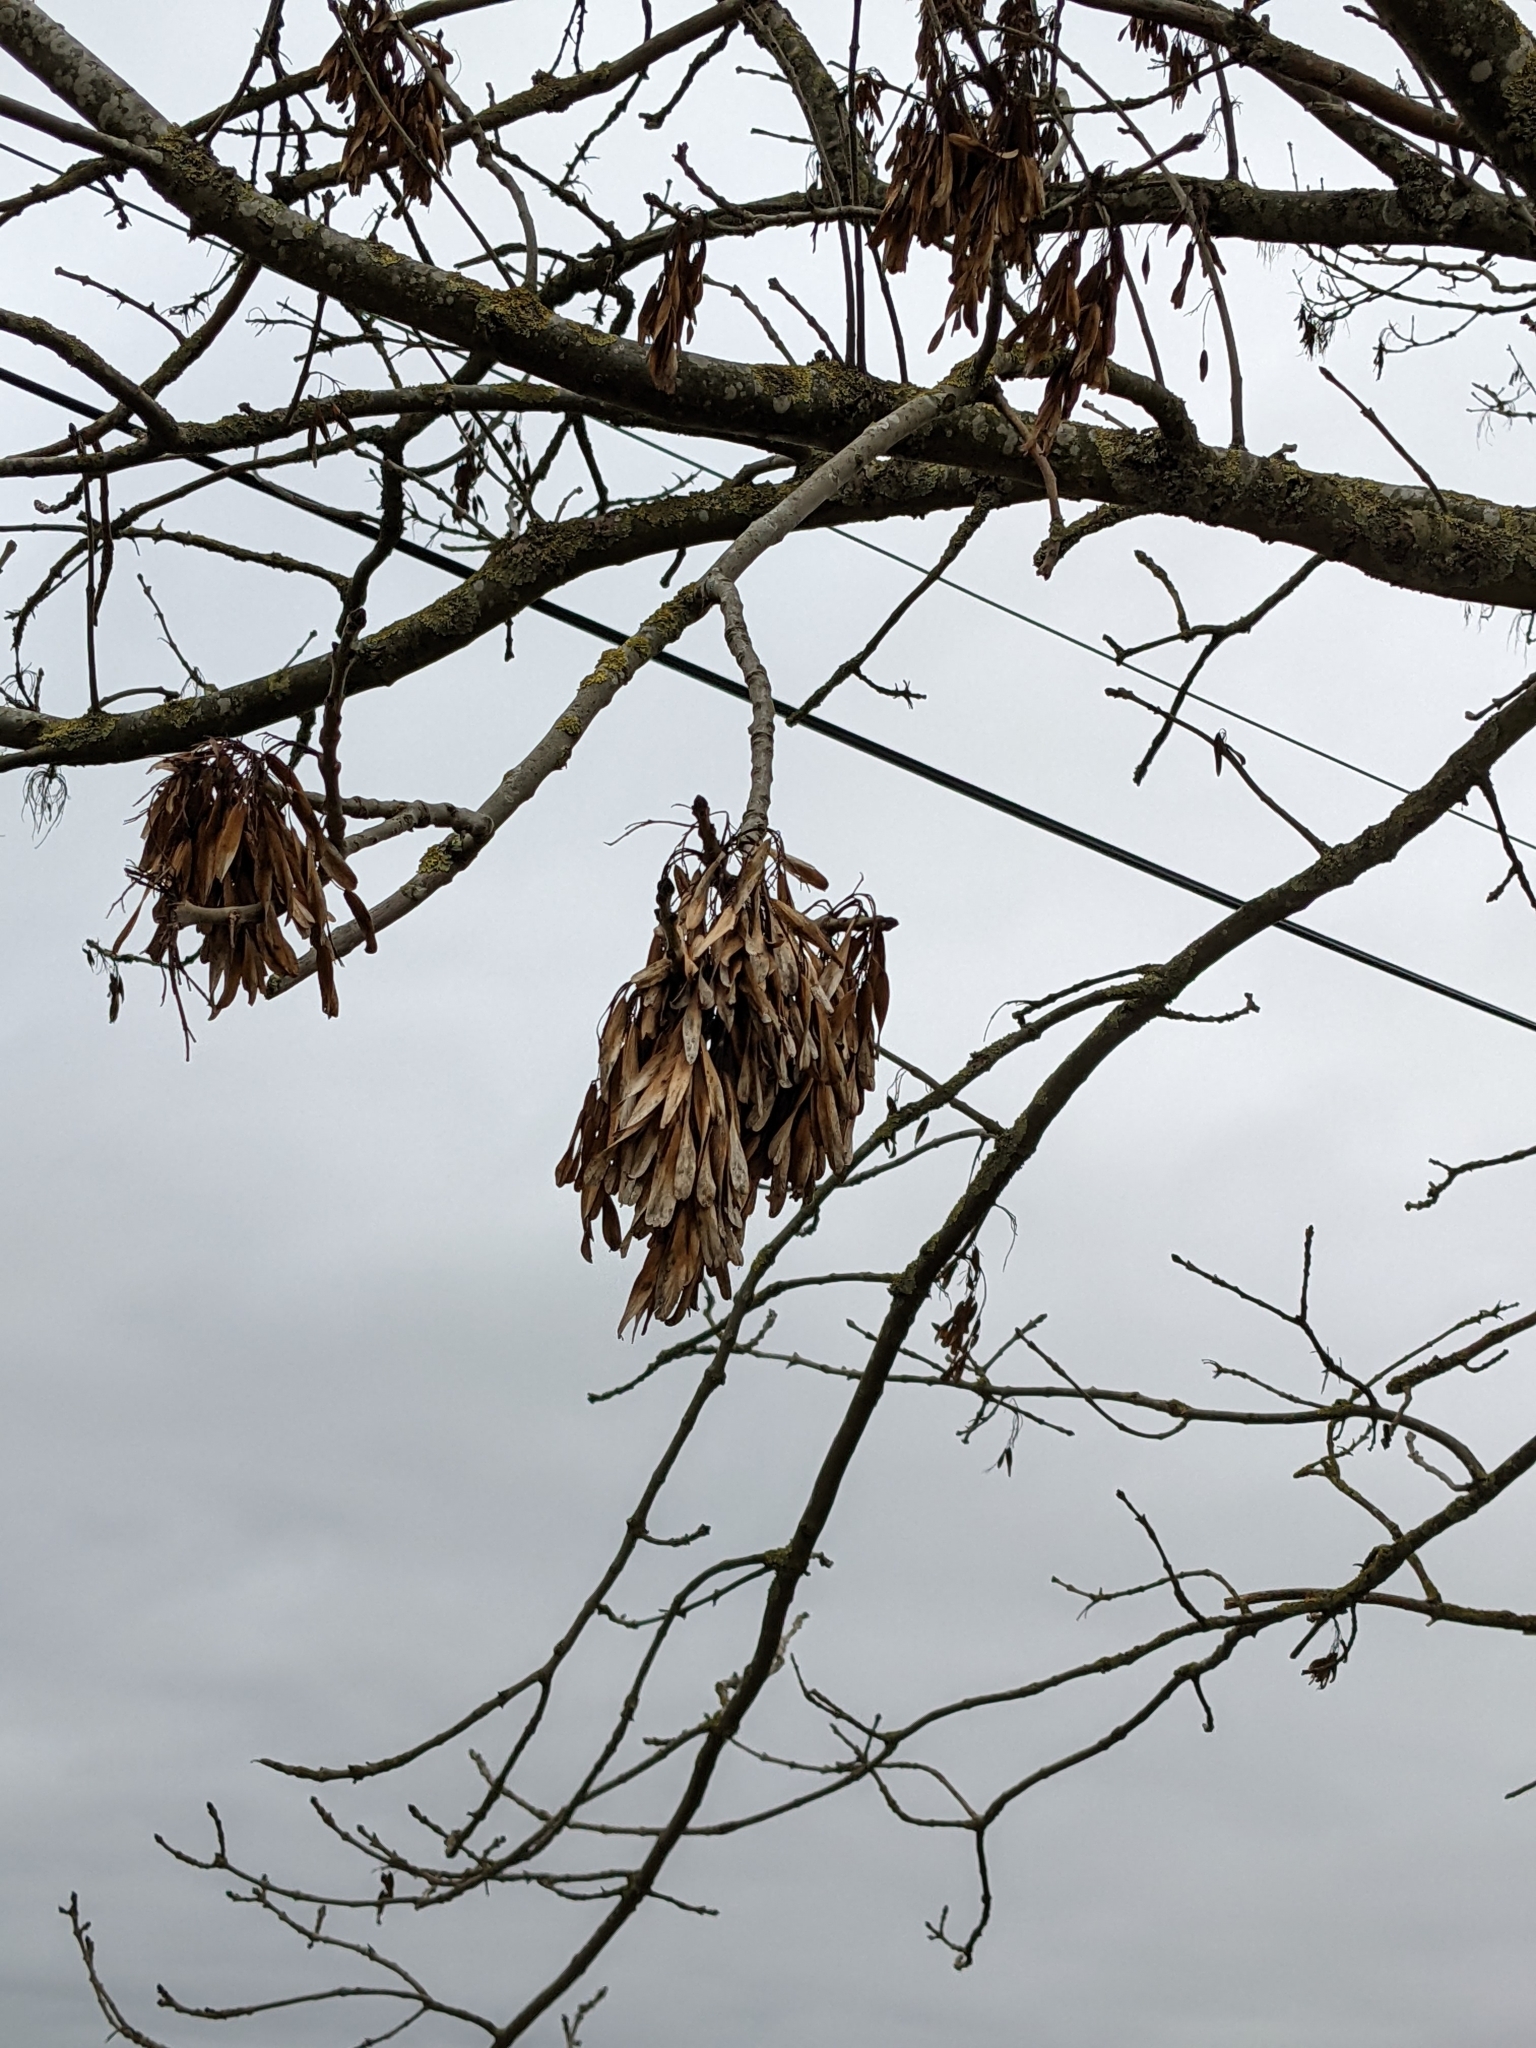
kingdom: Plantae
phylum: Tracheophyta
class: Magnoliopsida
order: Lamiales
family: Oleaceae
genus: Fraxinus
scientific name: Fraxinus excelsior
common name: European ash
